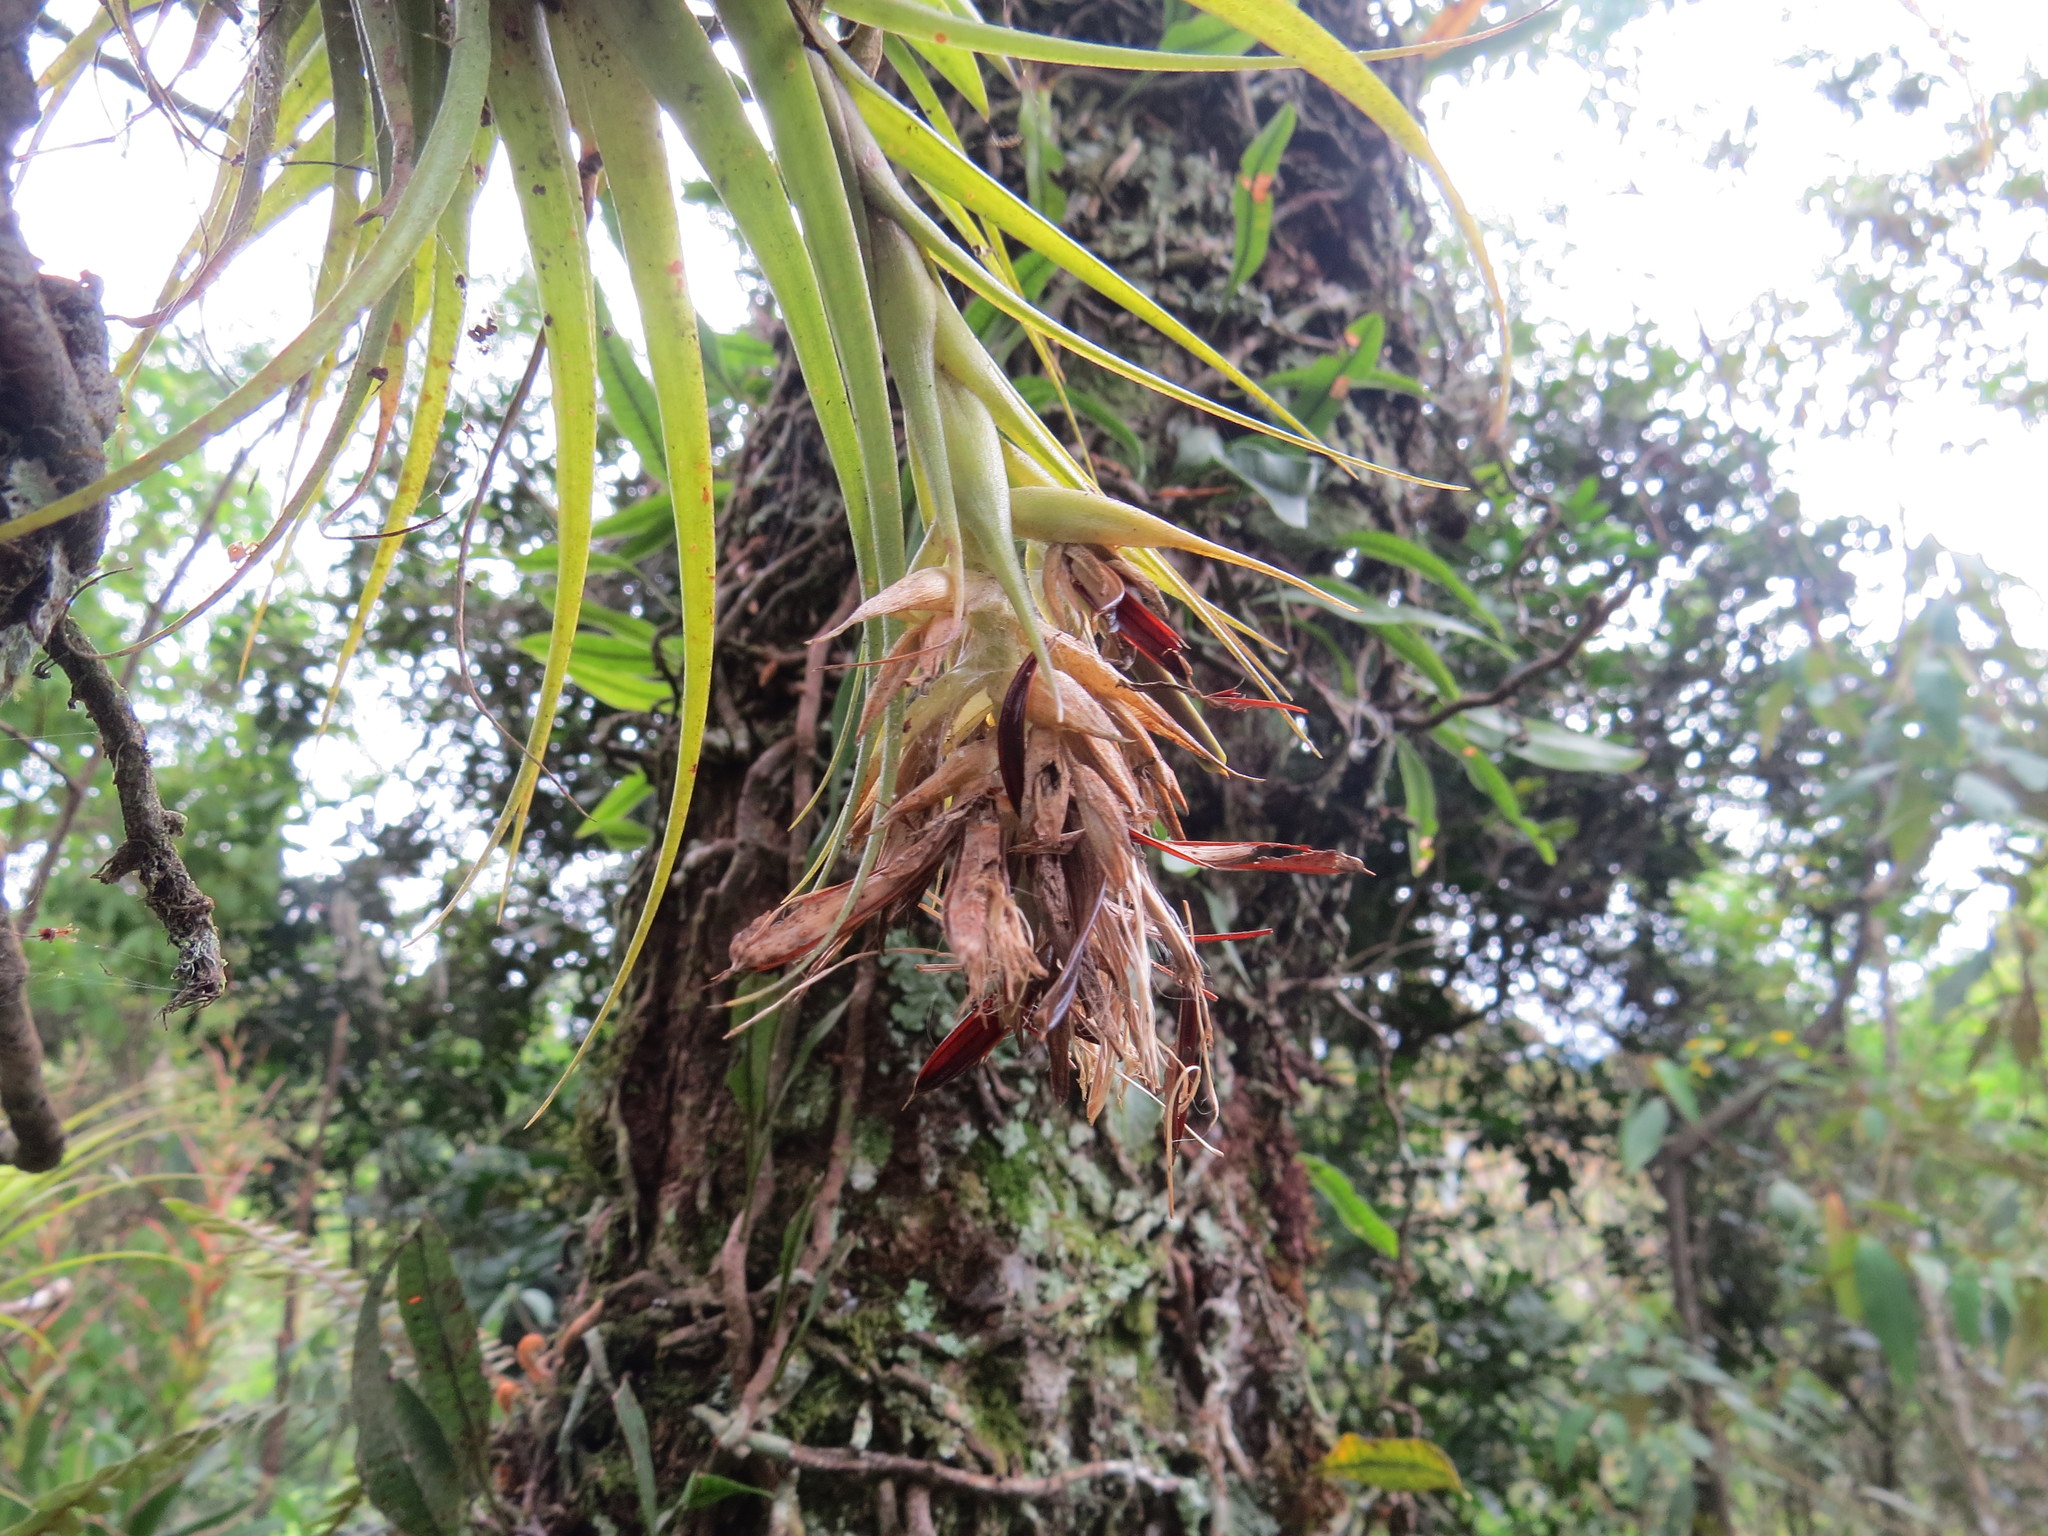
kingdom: Plantae
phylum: Tracheophyta
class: Liliopsida
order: Poales
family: Bromeliaceae
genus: Tillandsia
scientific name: Tillandsia geminiflora
